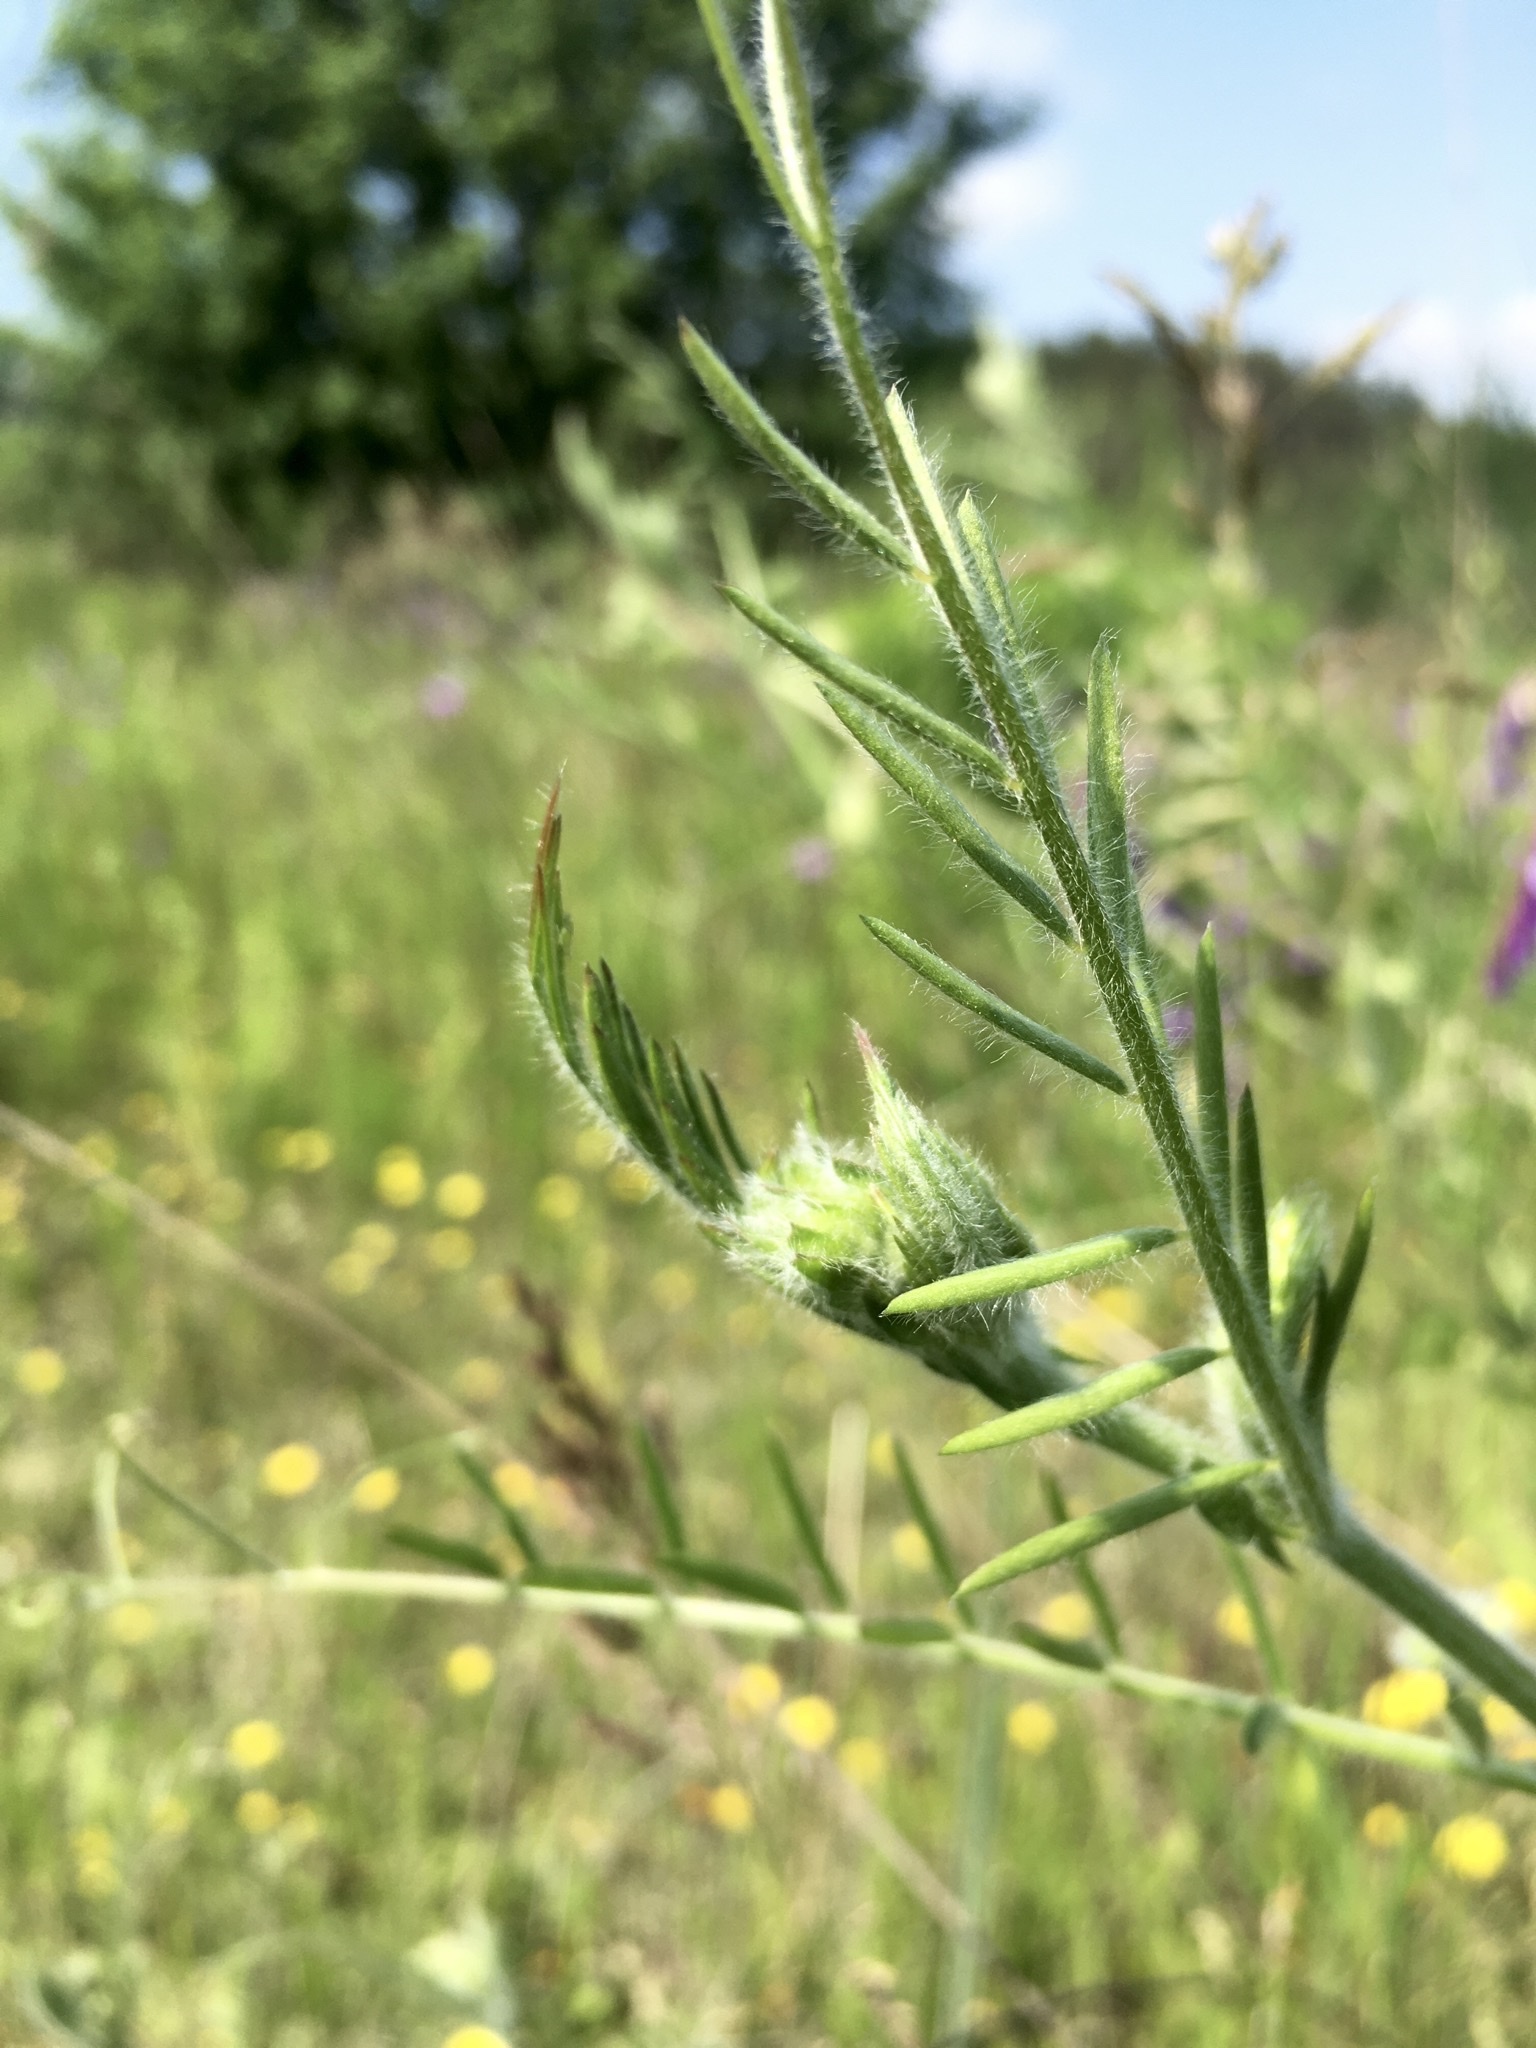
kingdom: Plantae
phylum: Tracheophyta
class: Magnoliopsida
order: Fabales
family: Fabaceae
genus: Vicia
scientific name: Vicia villosa
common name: Fodder vetch
